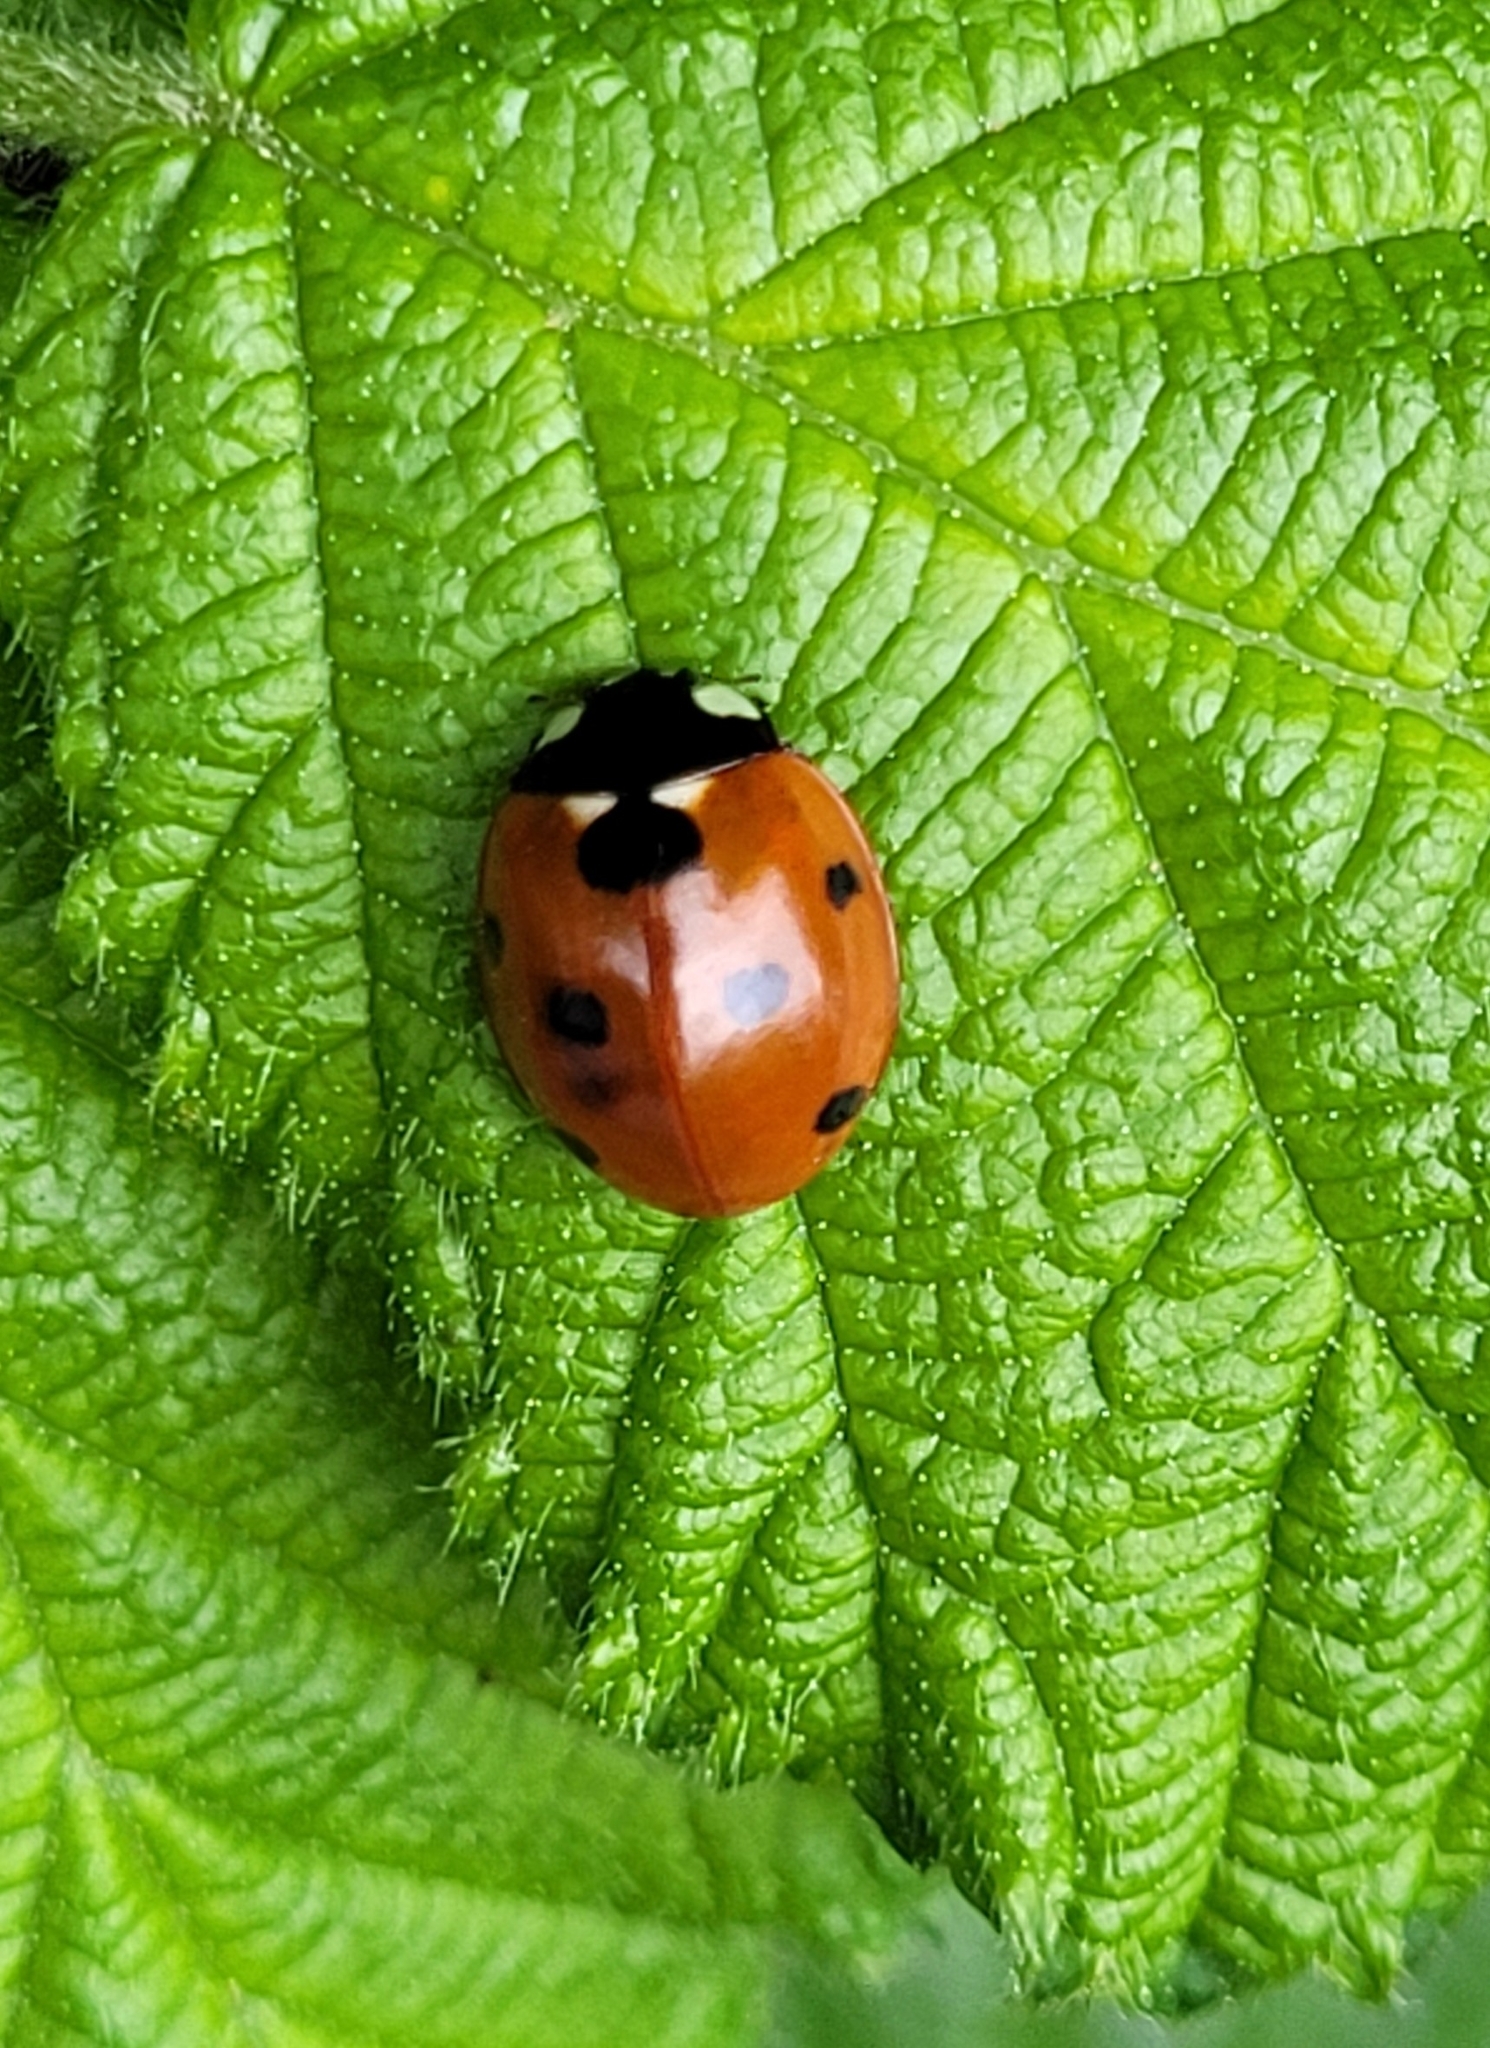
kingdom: Animalia
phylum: Arthropoda
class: Insecta
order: Coleoptera
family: Coccinellidae
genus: Coccinella
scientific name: Coccinella septempunctata
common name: Sevenspotted lady beetle
